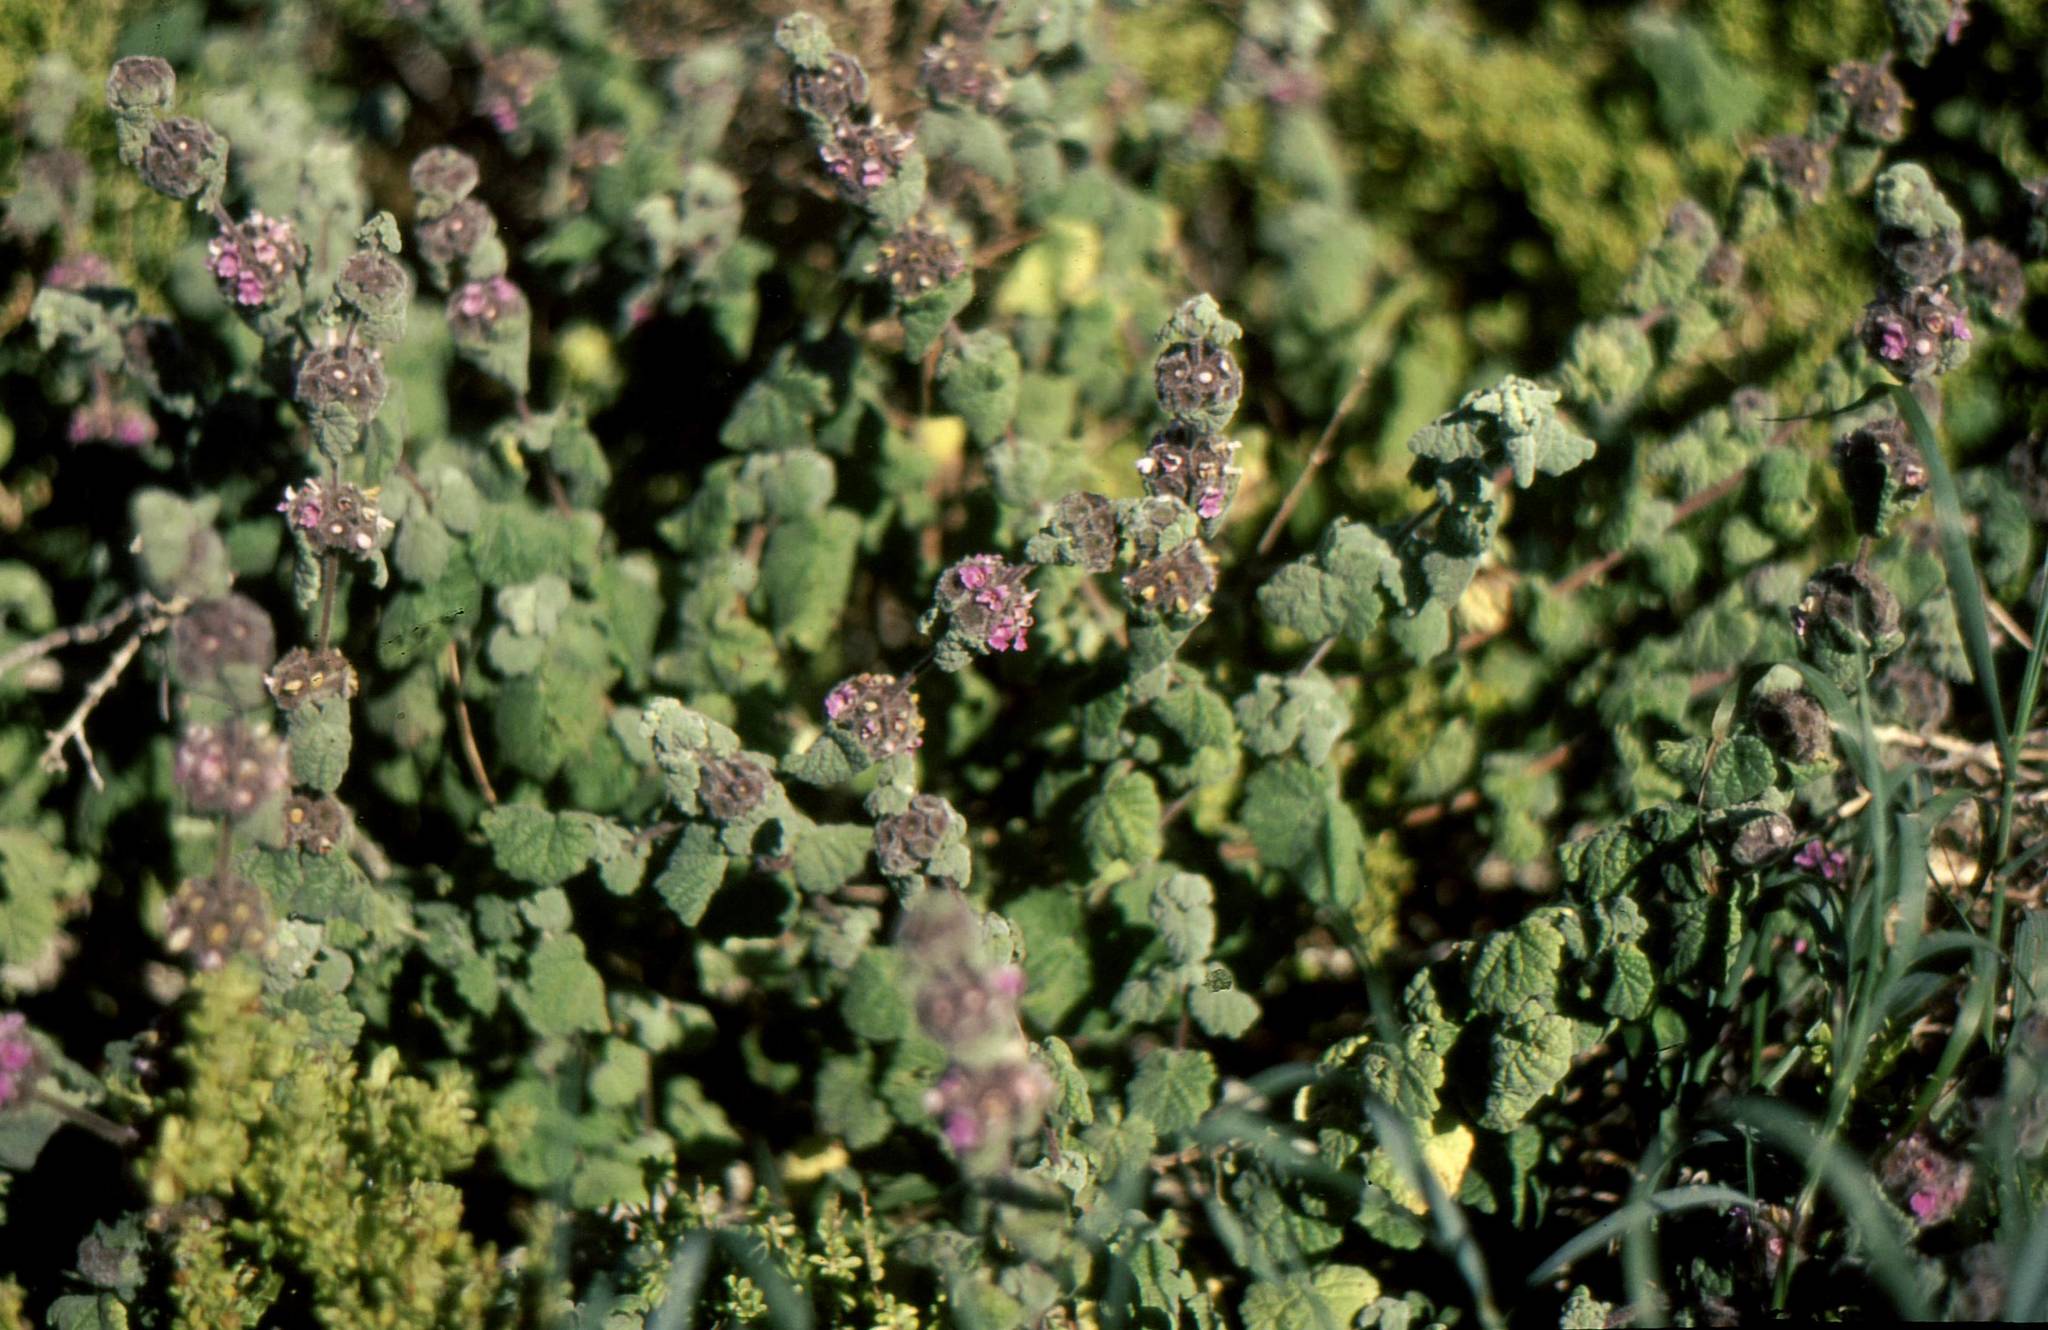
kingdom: Plantae
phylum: Tracheophyta
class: Magnoliopsida
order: Lamiales
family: Lamiaceae
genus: Pseudodictamnus
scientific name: Pseudodictamnus africanus
